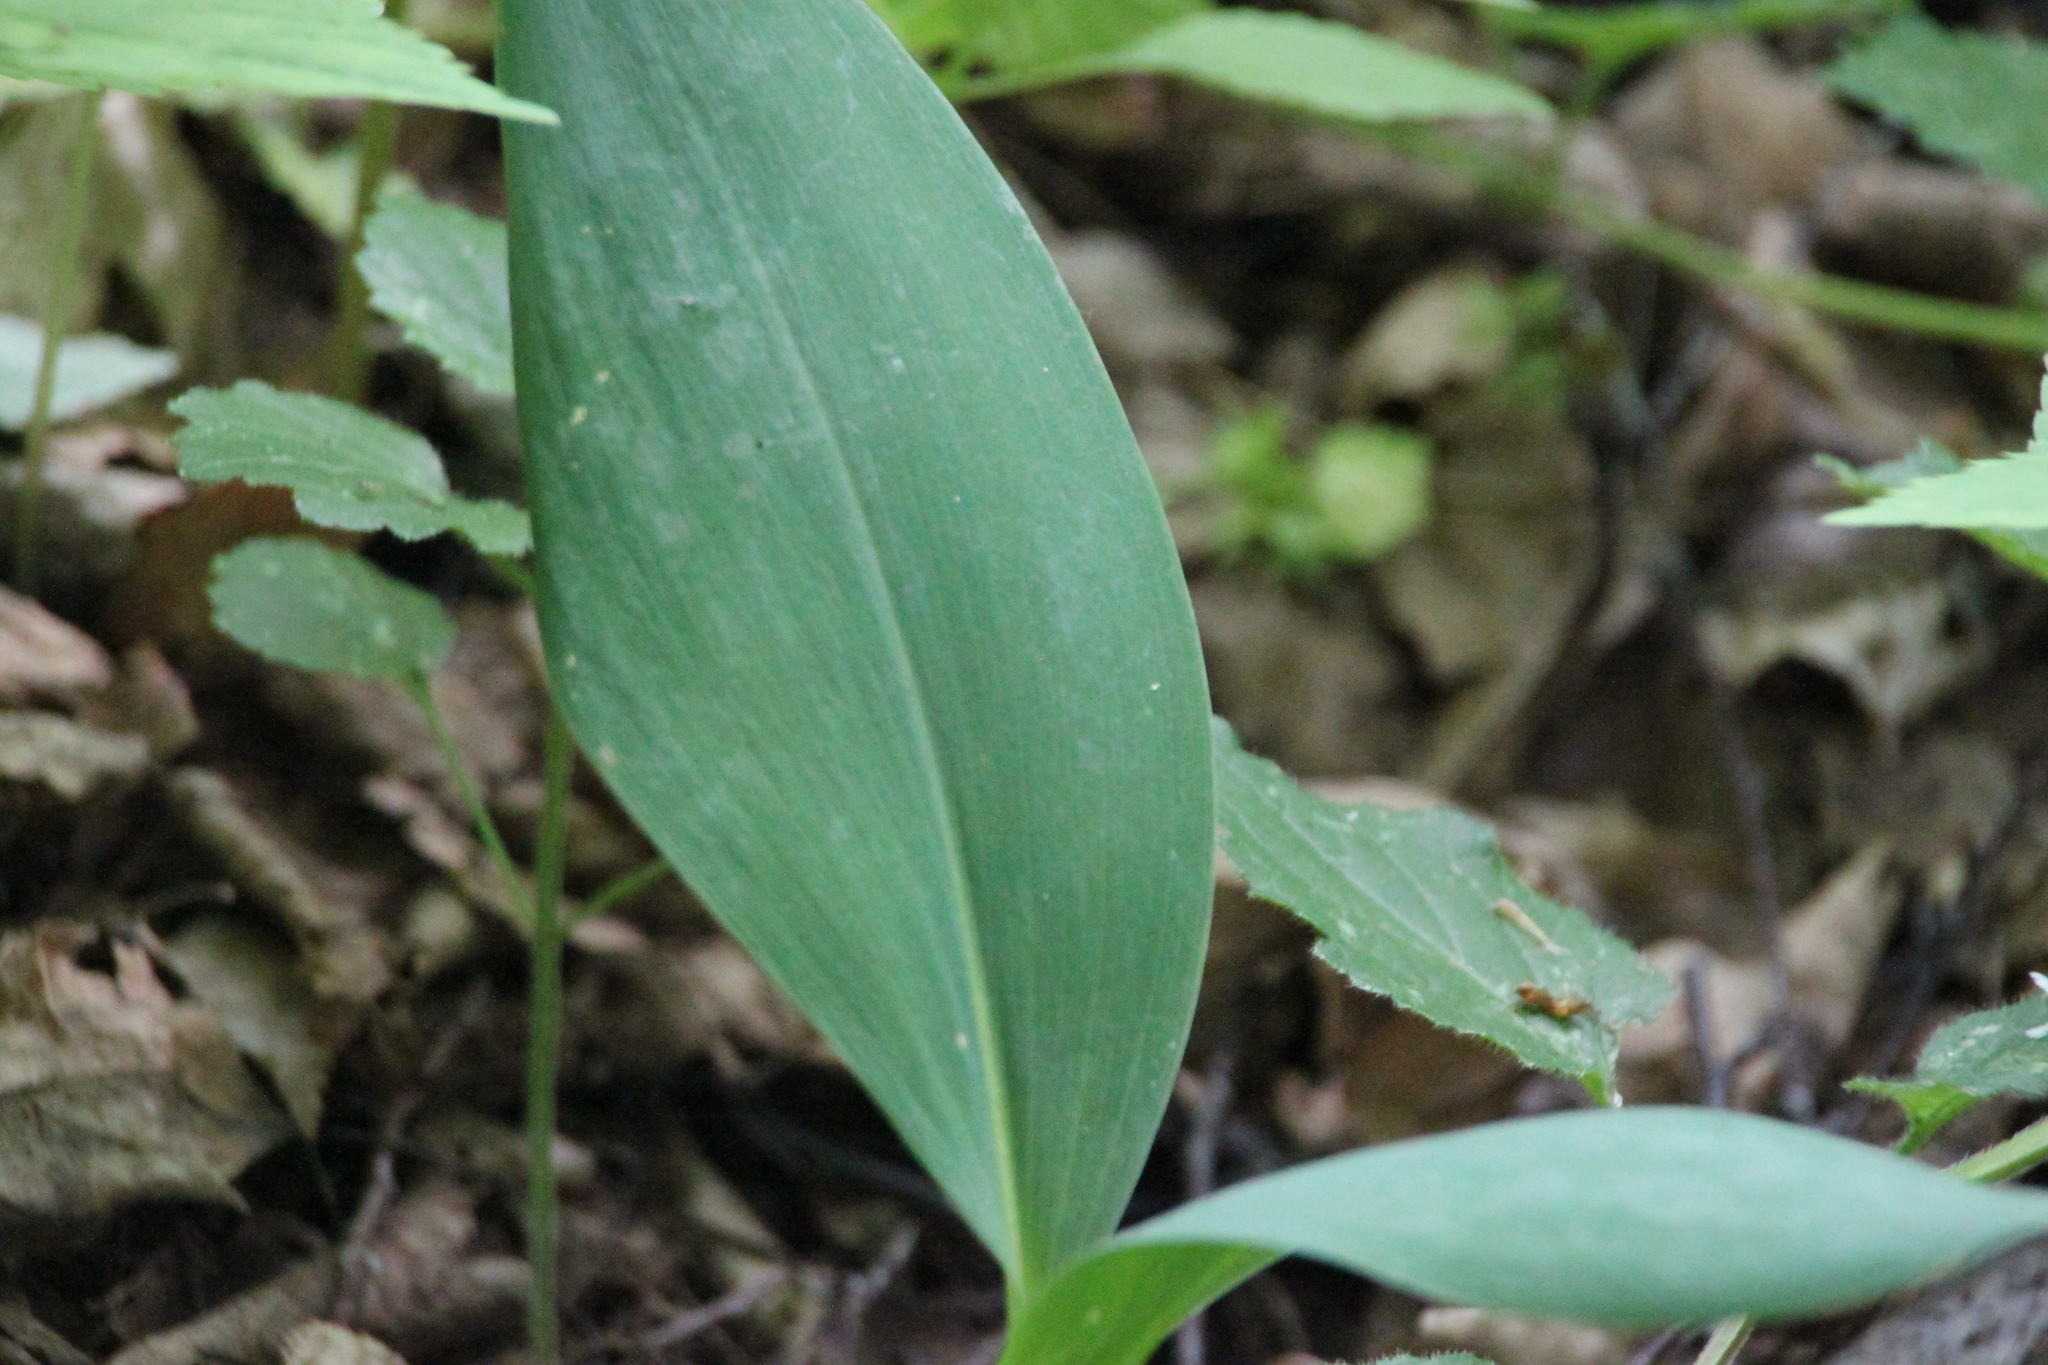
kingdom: Plantae
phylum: Tracheophyta
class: Liliopsida
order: Asparagales
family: Asparagaceae
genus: Convallaria
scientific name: Convallaria majalis
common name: Lily-of-the-valley
